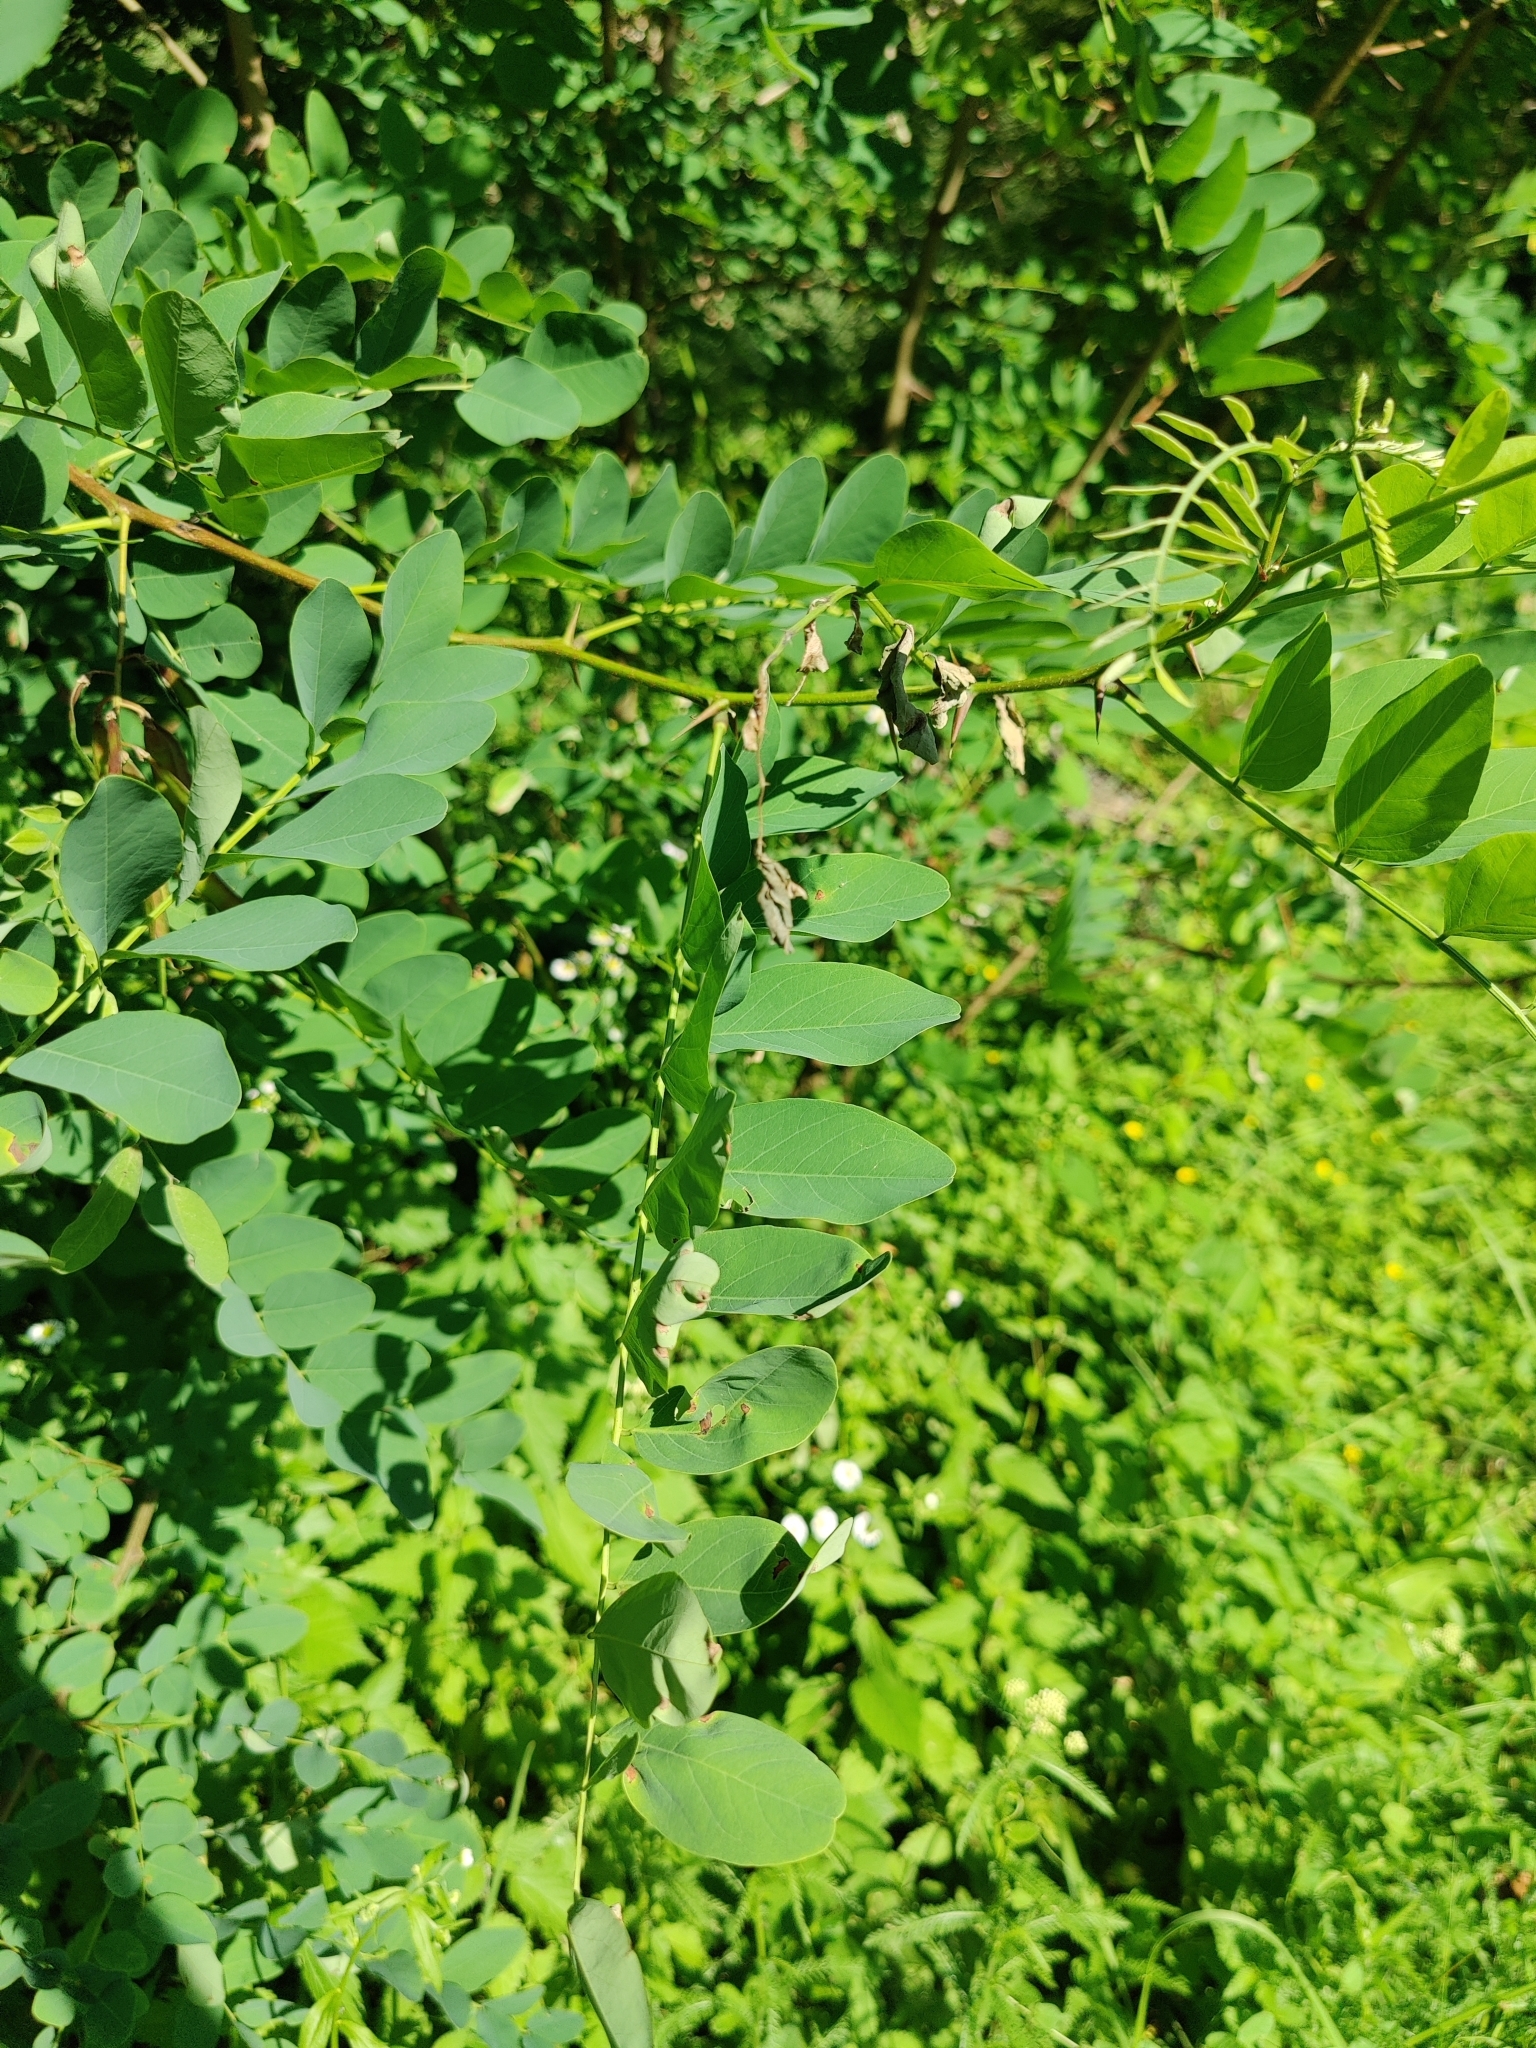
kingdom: Plantae
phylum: Tracheophyta
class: Magnoliopsida
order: Fabales
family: Fabaceae
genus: Robinia
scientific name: Robinia pseudoacacia
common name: Black locust
